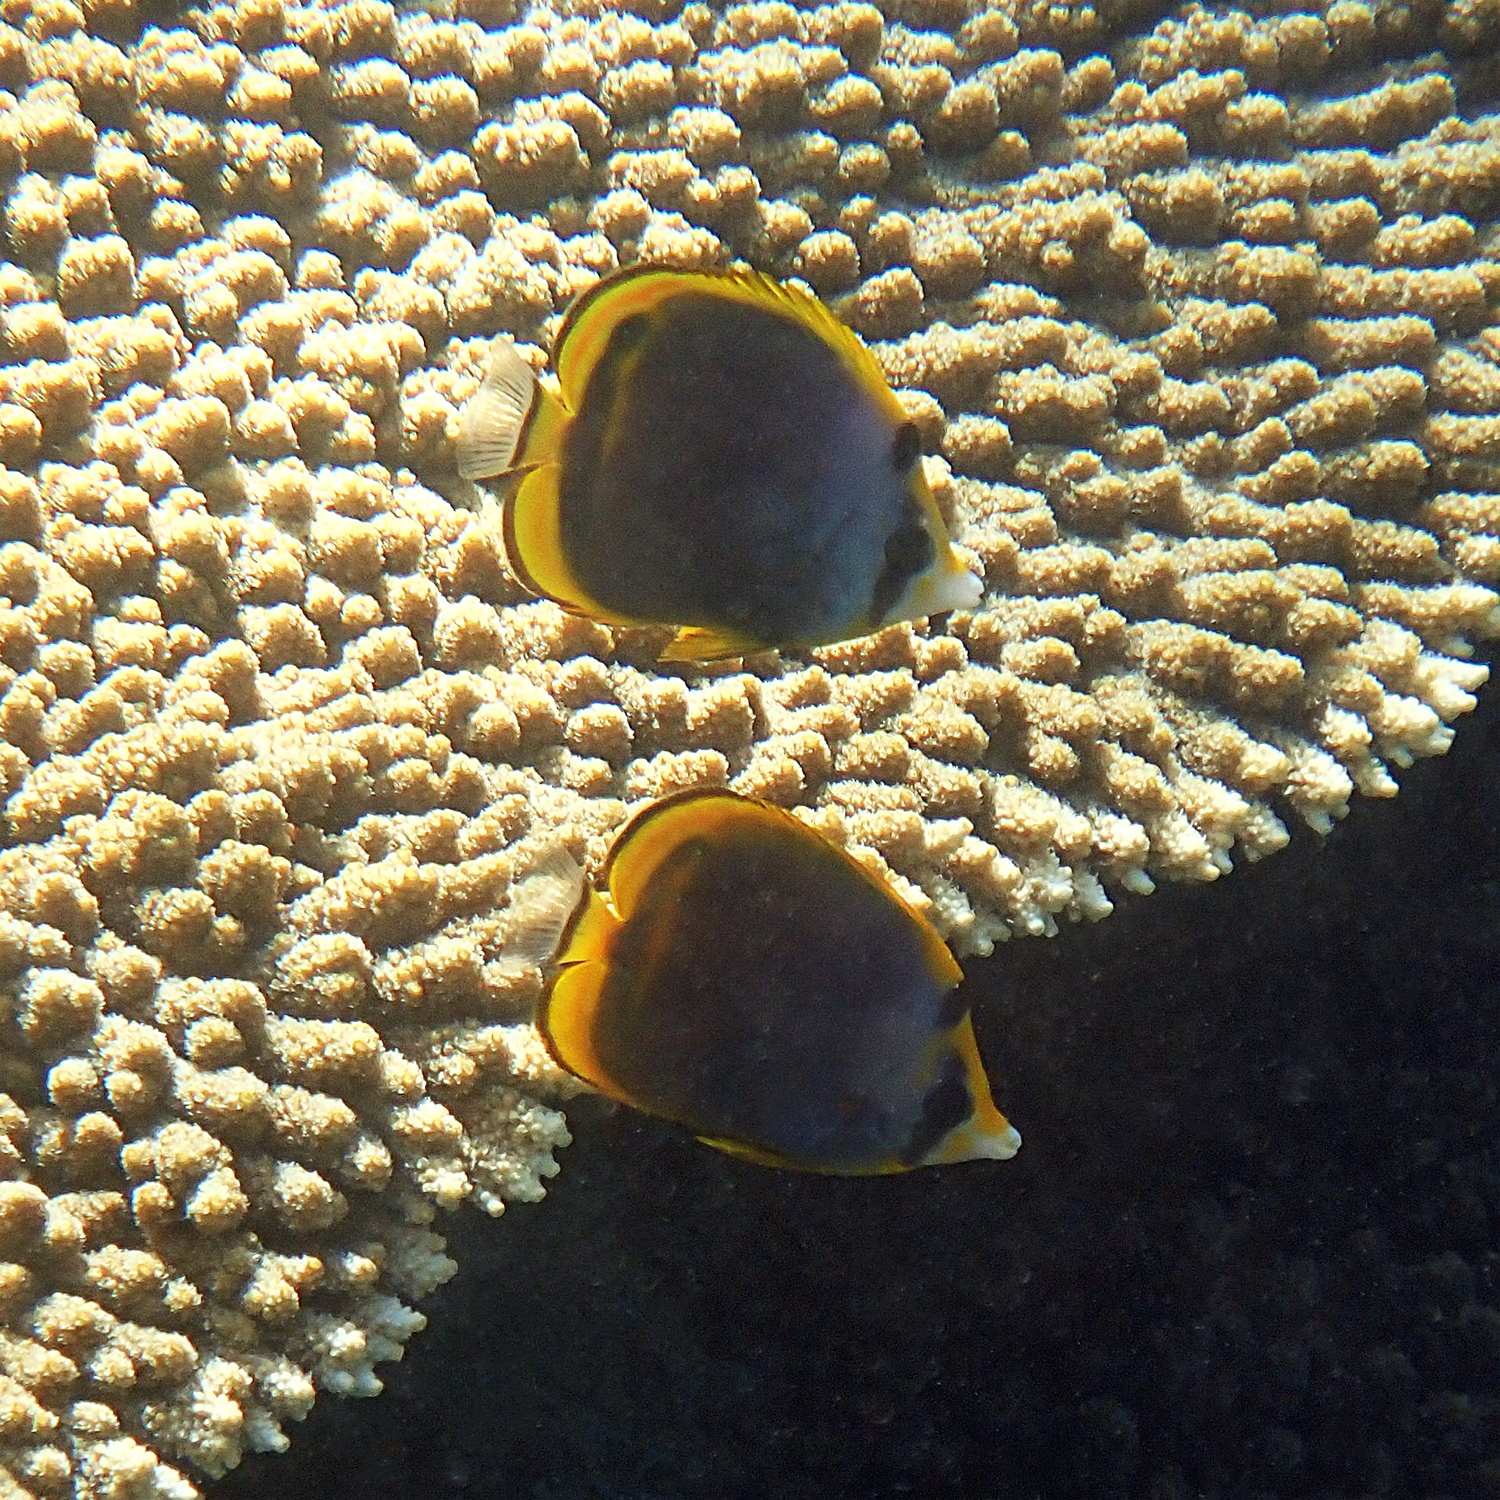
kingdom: Animalia
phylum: Chordata
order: Perciformes
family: Chaetodontidae
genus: Chaetodon
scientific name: Chaetodon flavirostris
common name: Black butterflyfish
